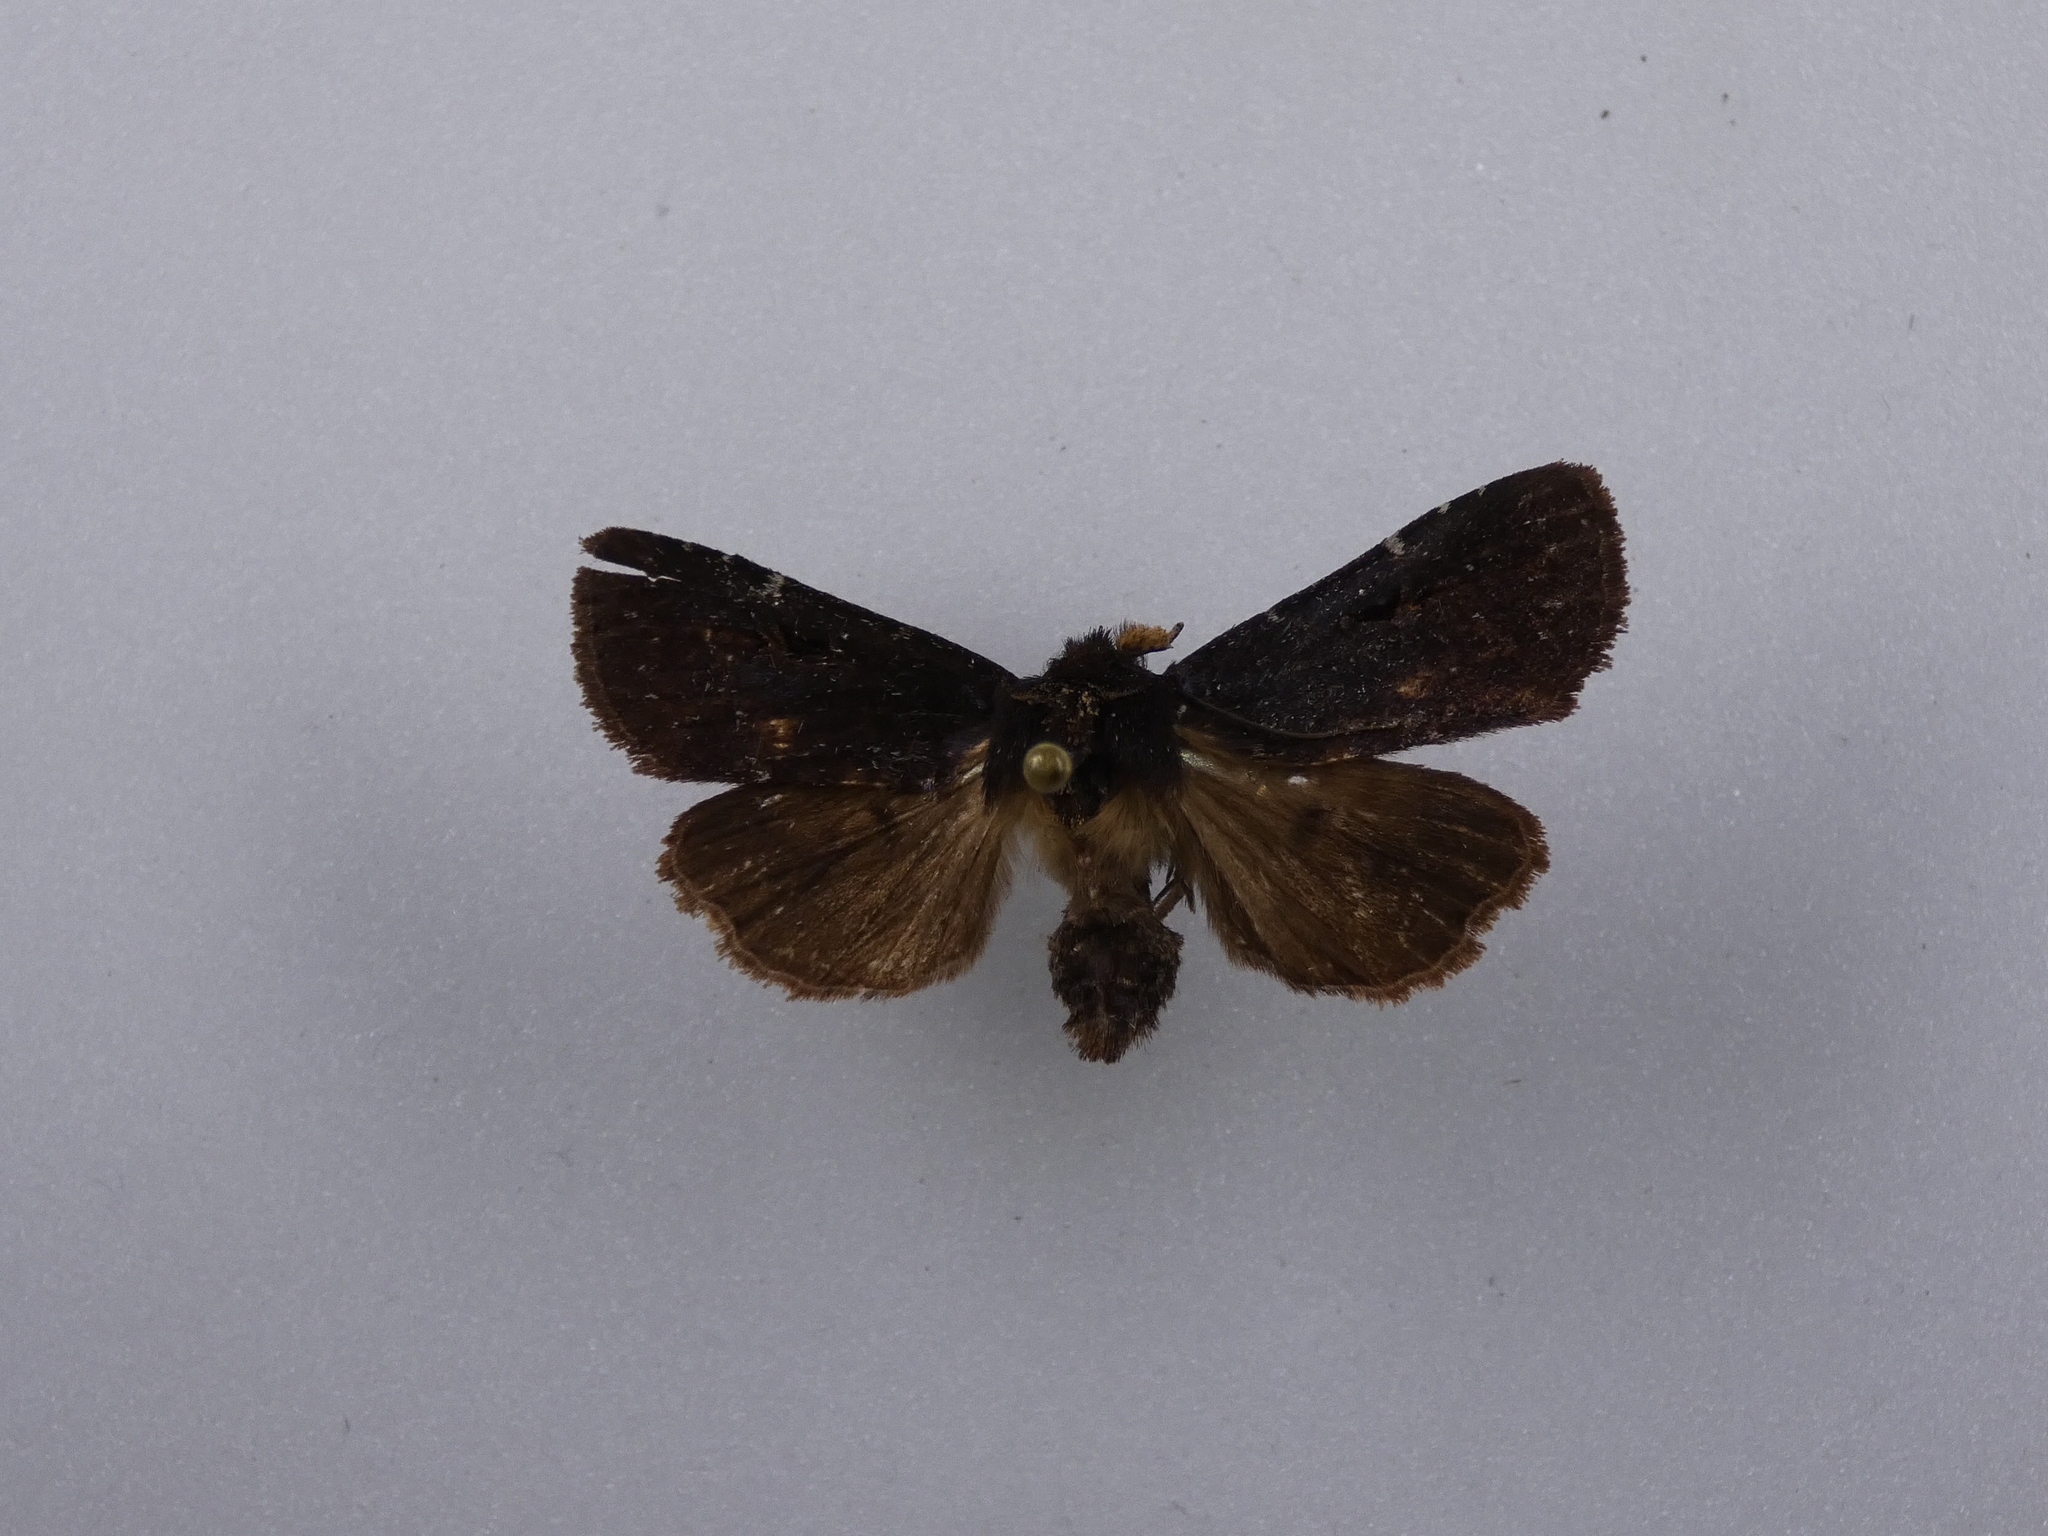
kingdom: Animalia
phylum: Arthropoda
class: Insecta
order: Lepidoptera
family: Noctuidae
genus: Austramathes
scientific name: Austramathes purpurea
